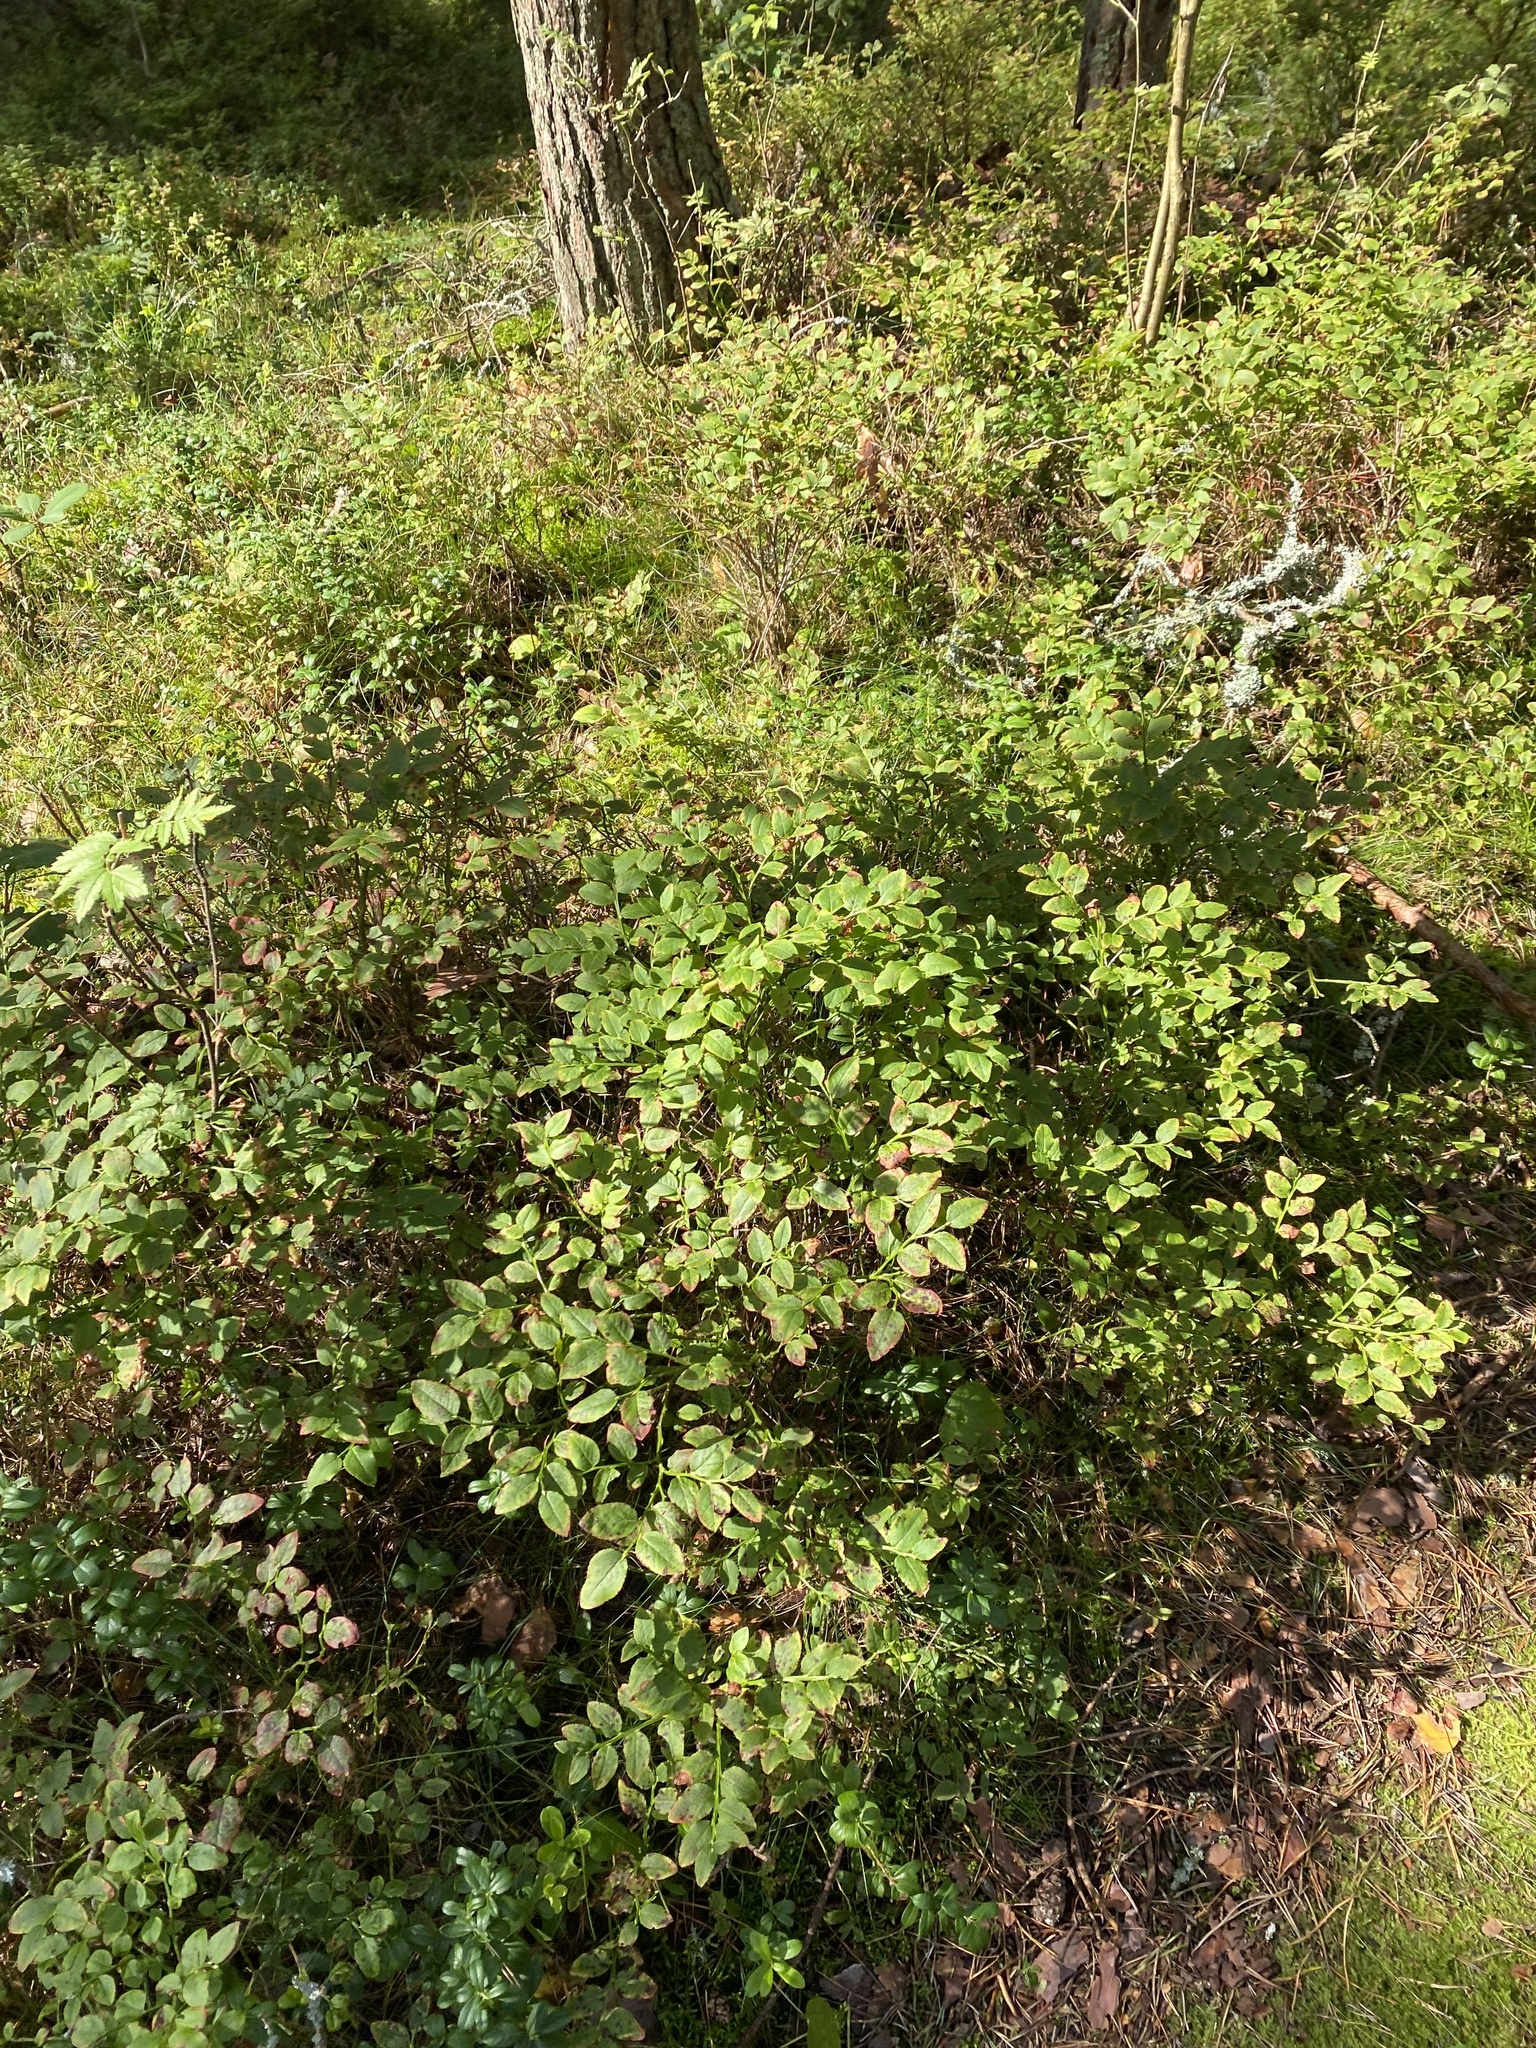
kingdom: Plantae
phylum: Tracheophyta
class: Magnoliopsida
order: Ericales
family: Ericaceae
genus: Vaccinium
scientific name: Vaccinium myrtillus
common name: Bilberry
